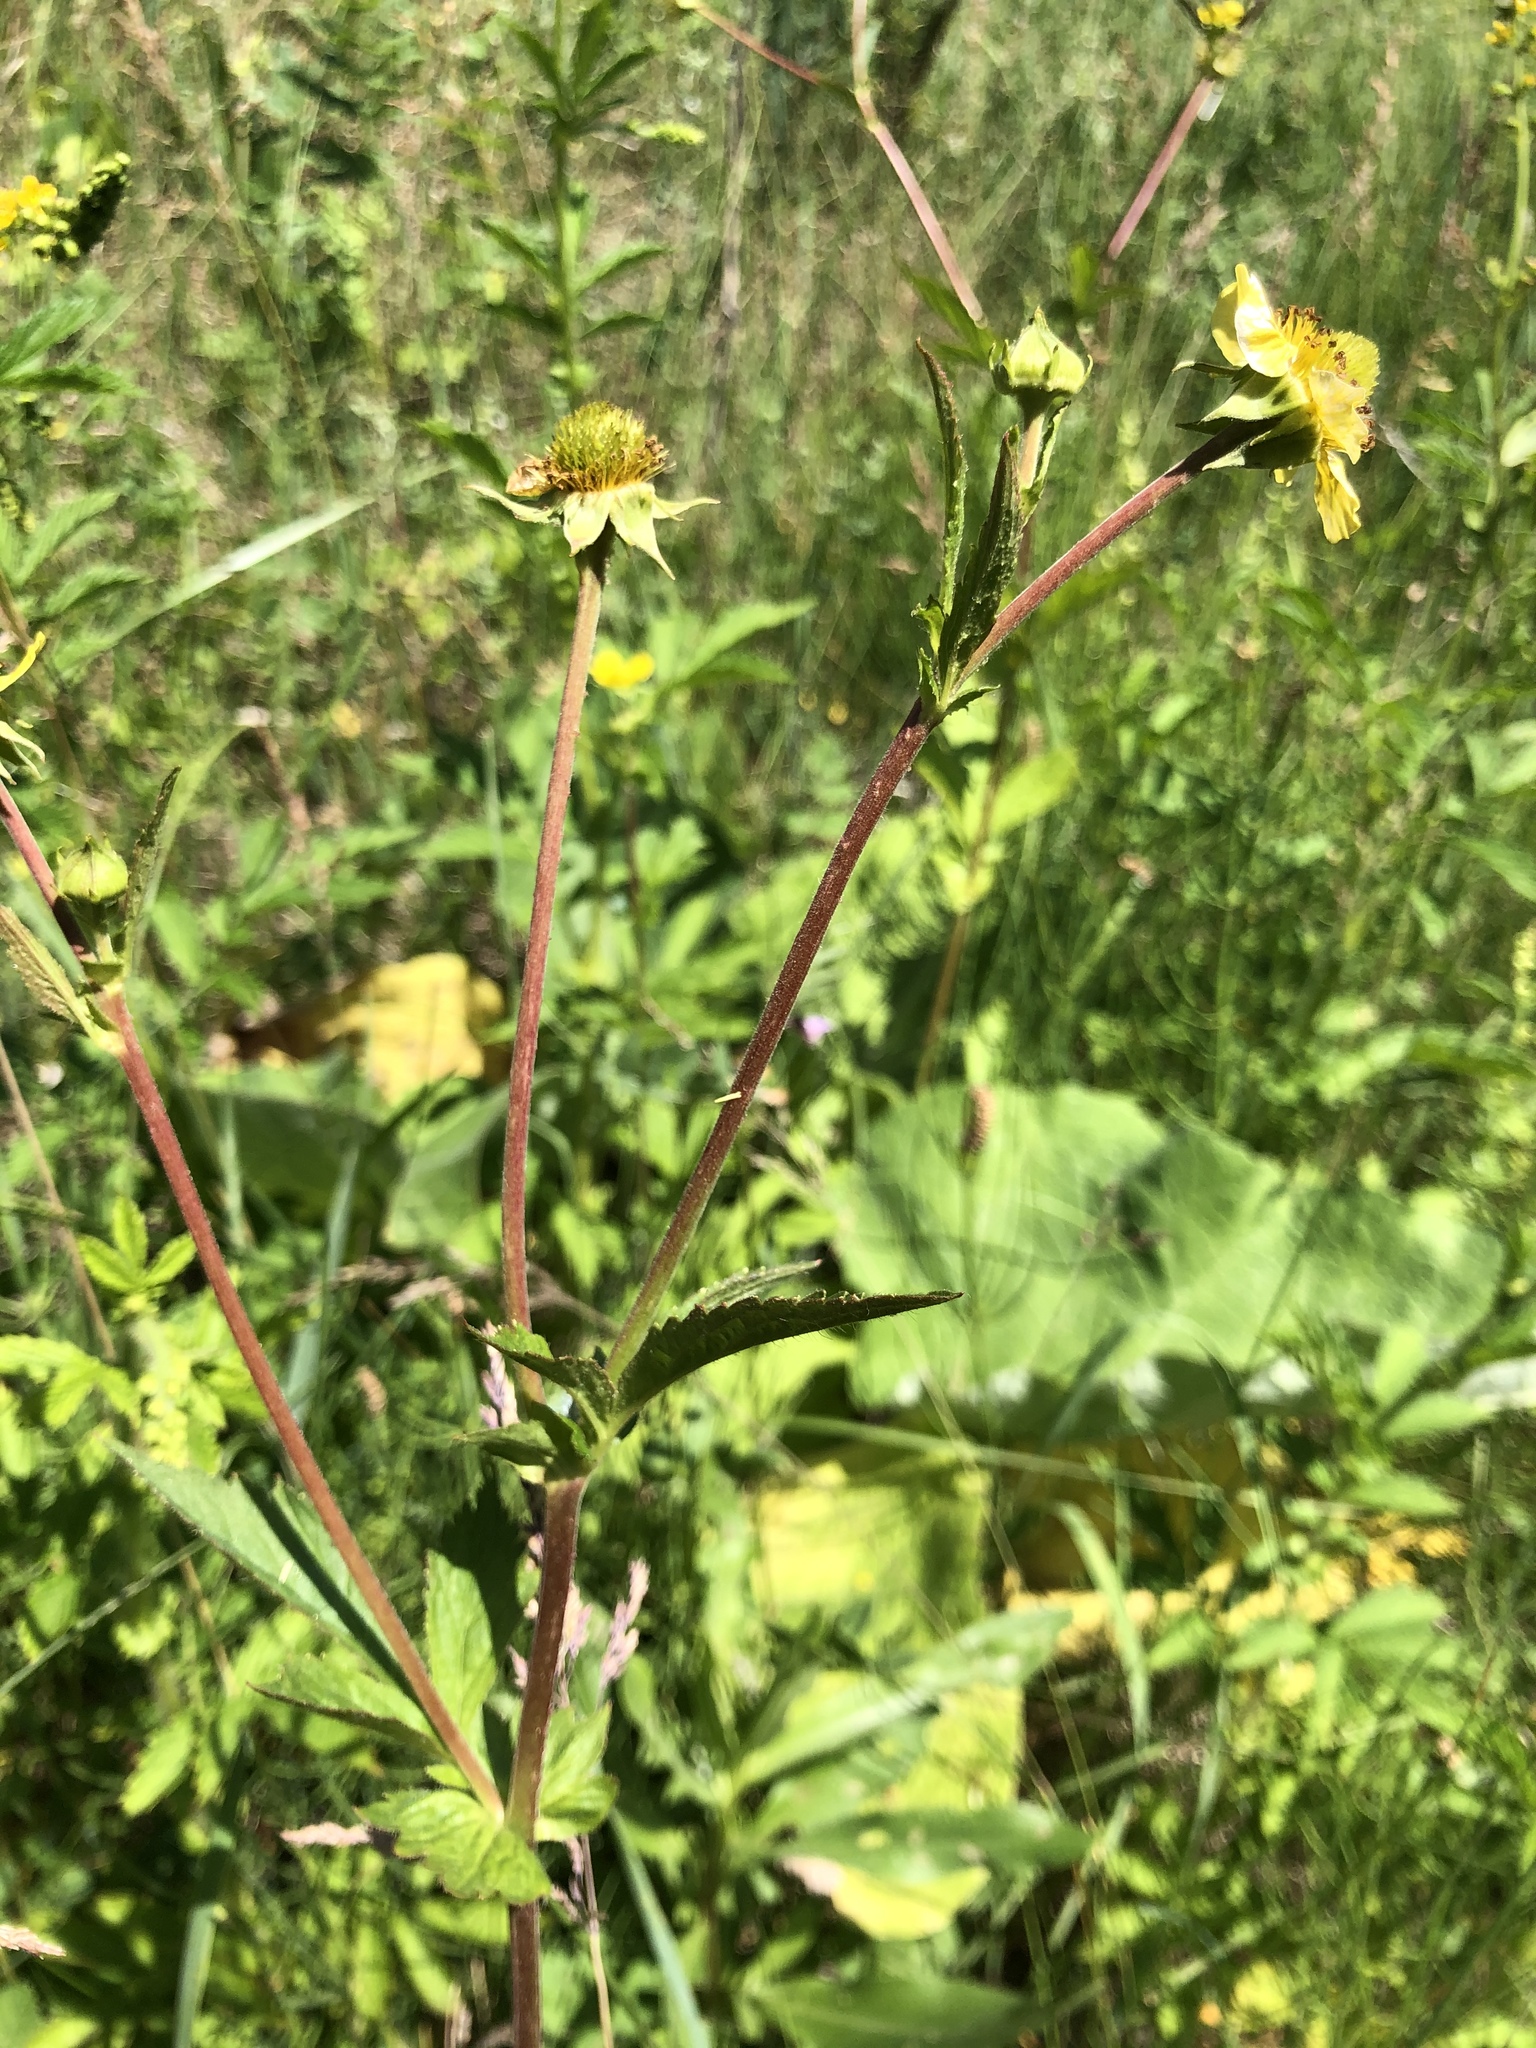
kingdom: Plantae
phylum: Tracheophyta
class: Magnoliopsida
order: Rosales
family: Rosaceae
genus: Geum
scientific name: Geum aleppicum
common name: Yellow avens
